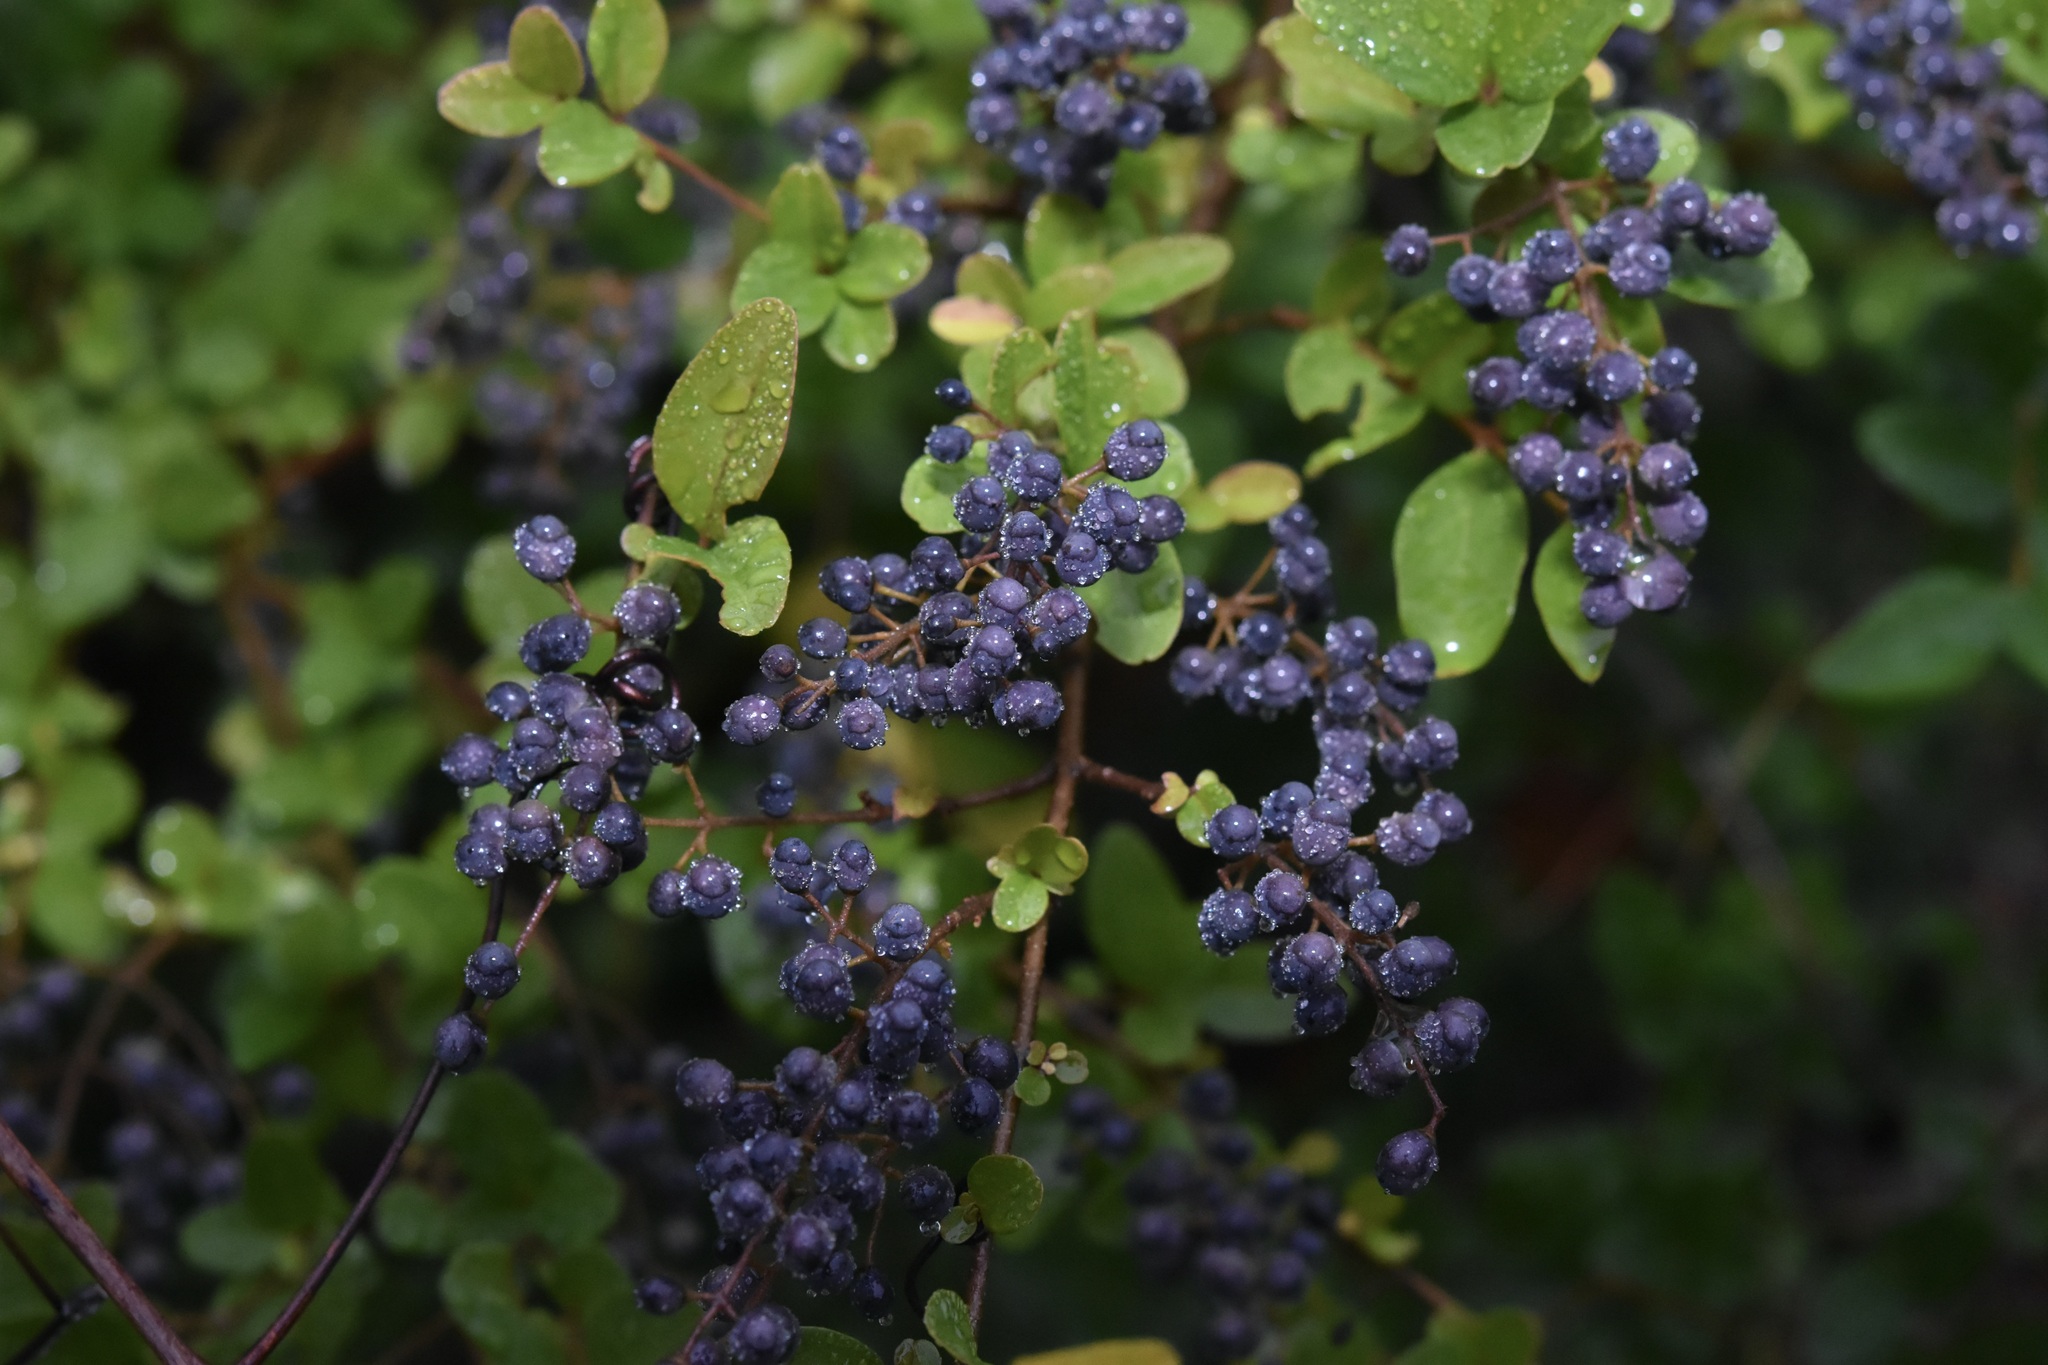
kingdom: Plantae
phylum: Tracheophyta
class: Magnoliopsida
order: Lamiales
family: Oleaceae
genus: Ligustrum
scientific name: Ligustrum sinense
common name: Chinese privet
